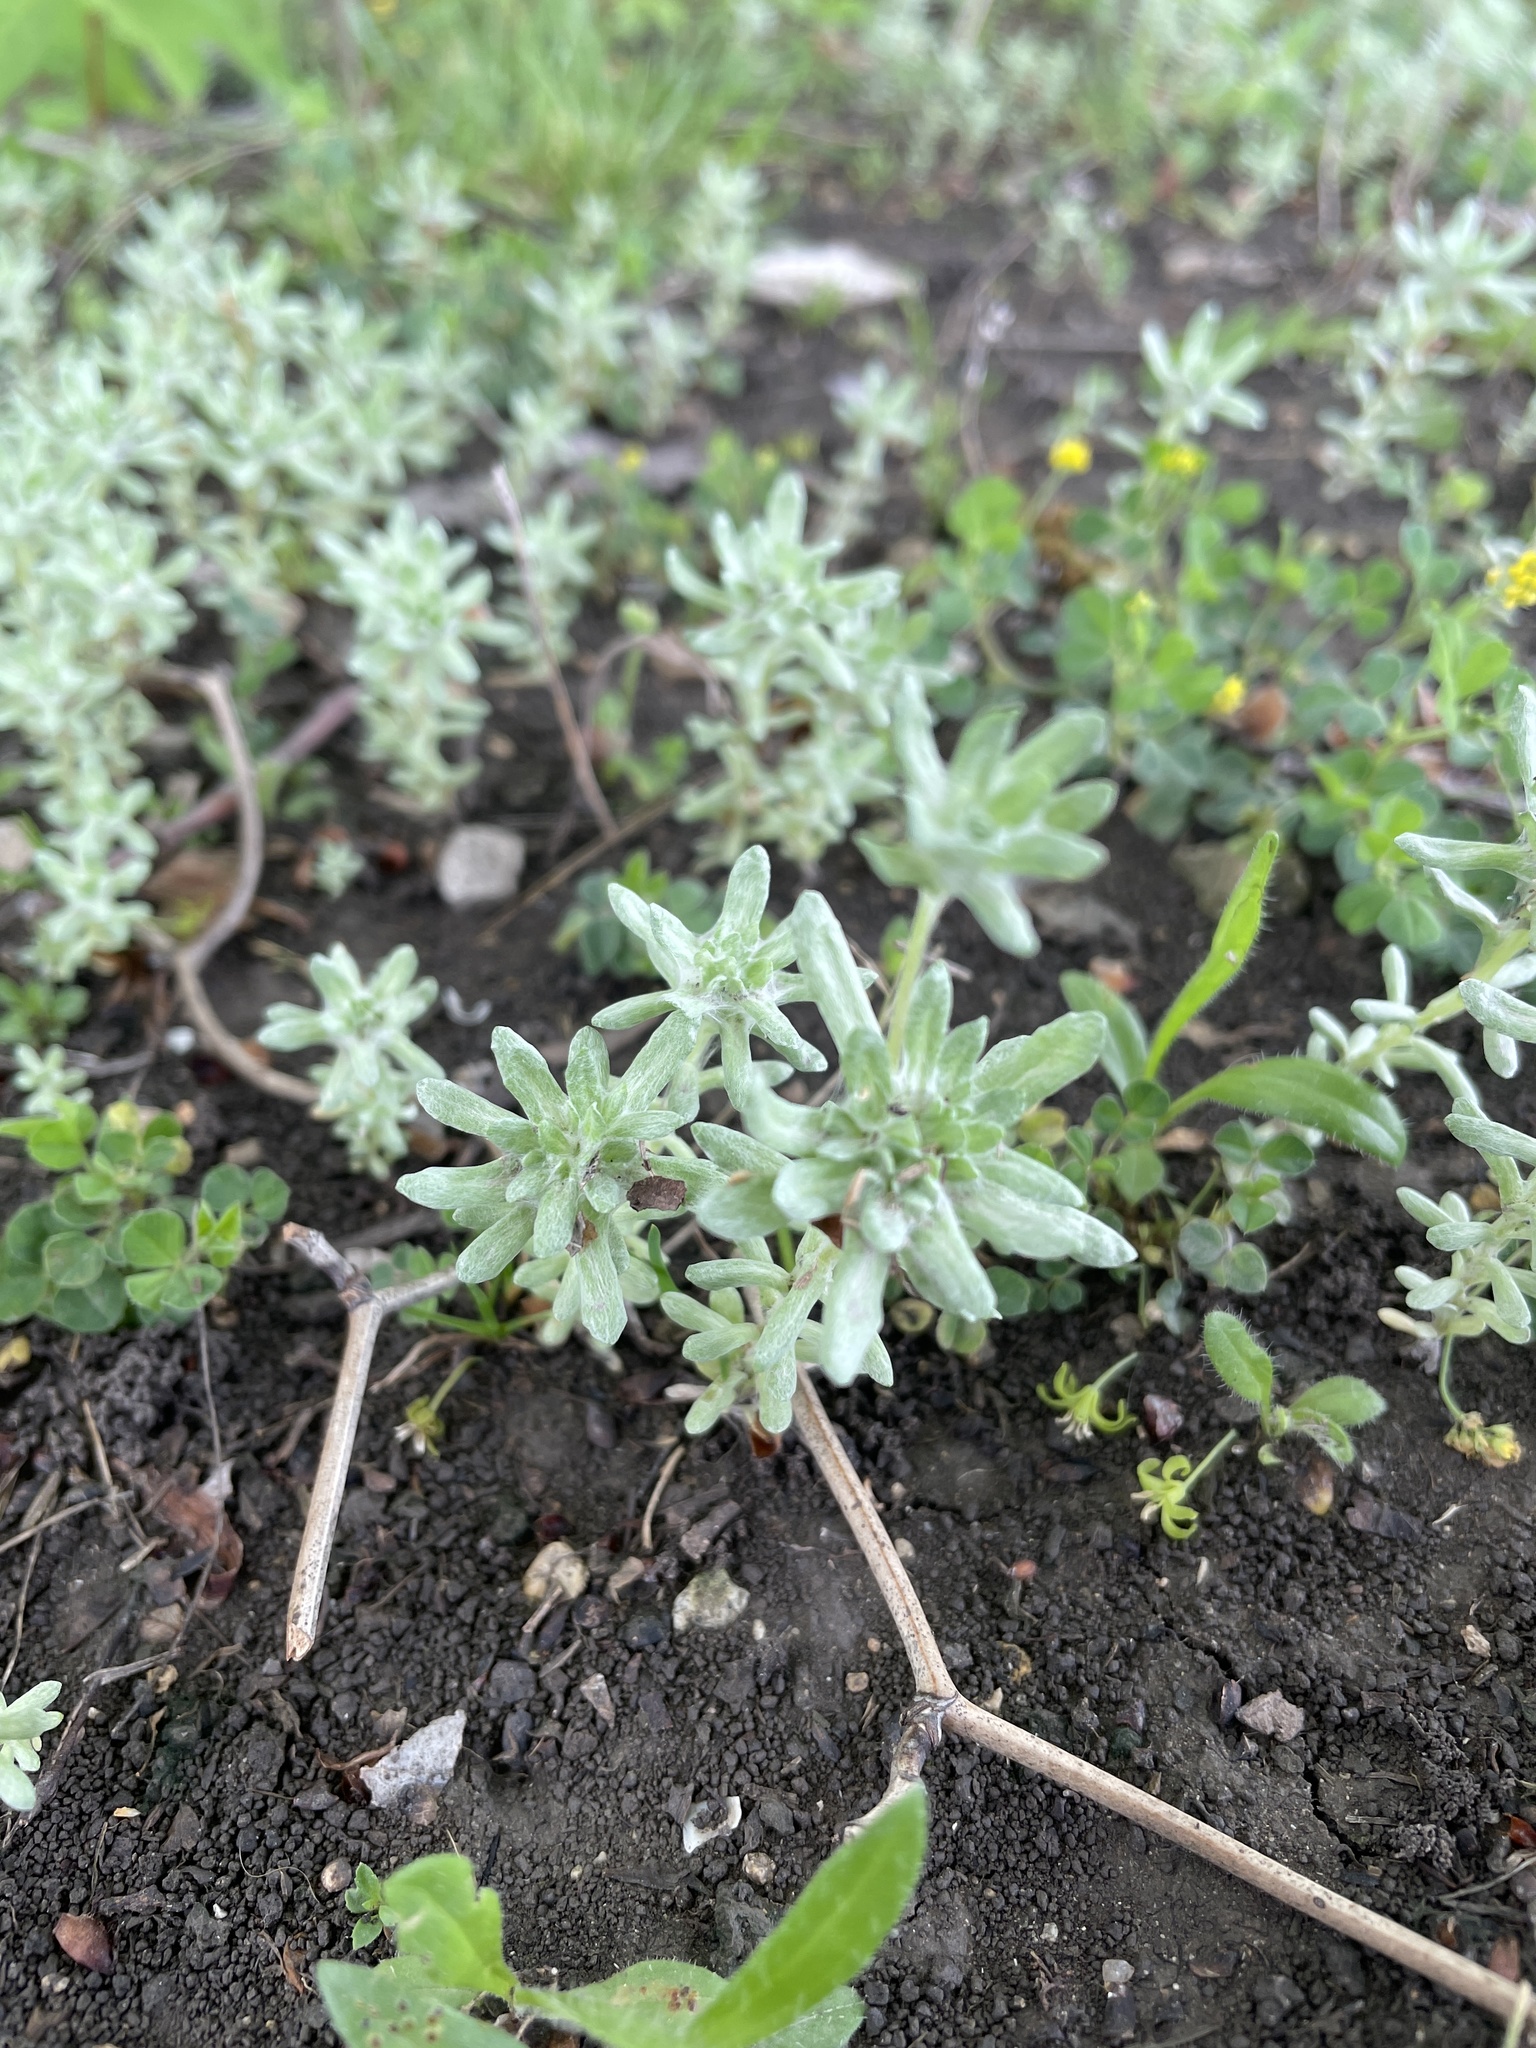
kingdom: Plantae
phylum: Tracheophyta
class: Magnoliopsida
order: Asterales
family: Asteraceae
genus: Diaperia
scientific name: Diaperia prolifera
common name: Big-head rabbit-tobacco
